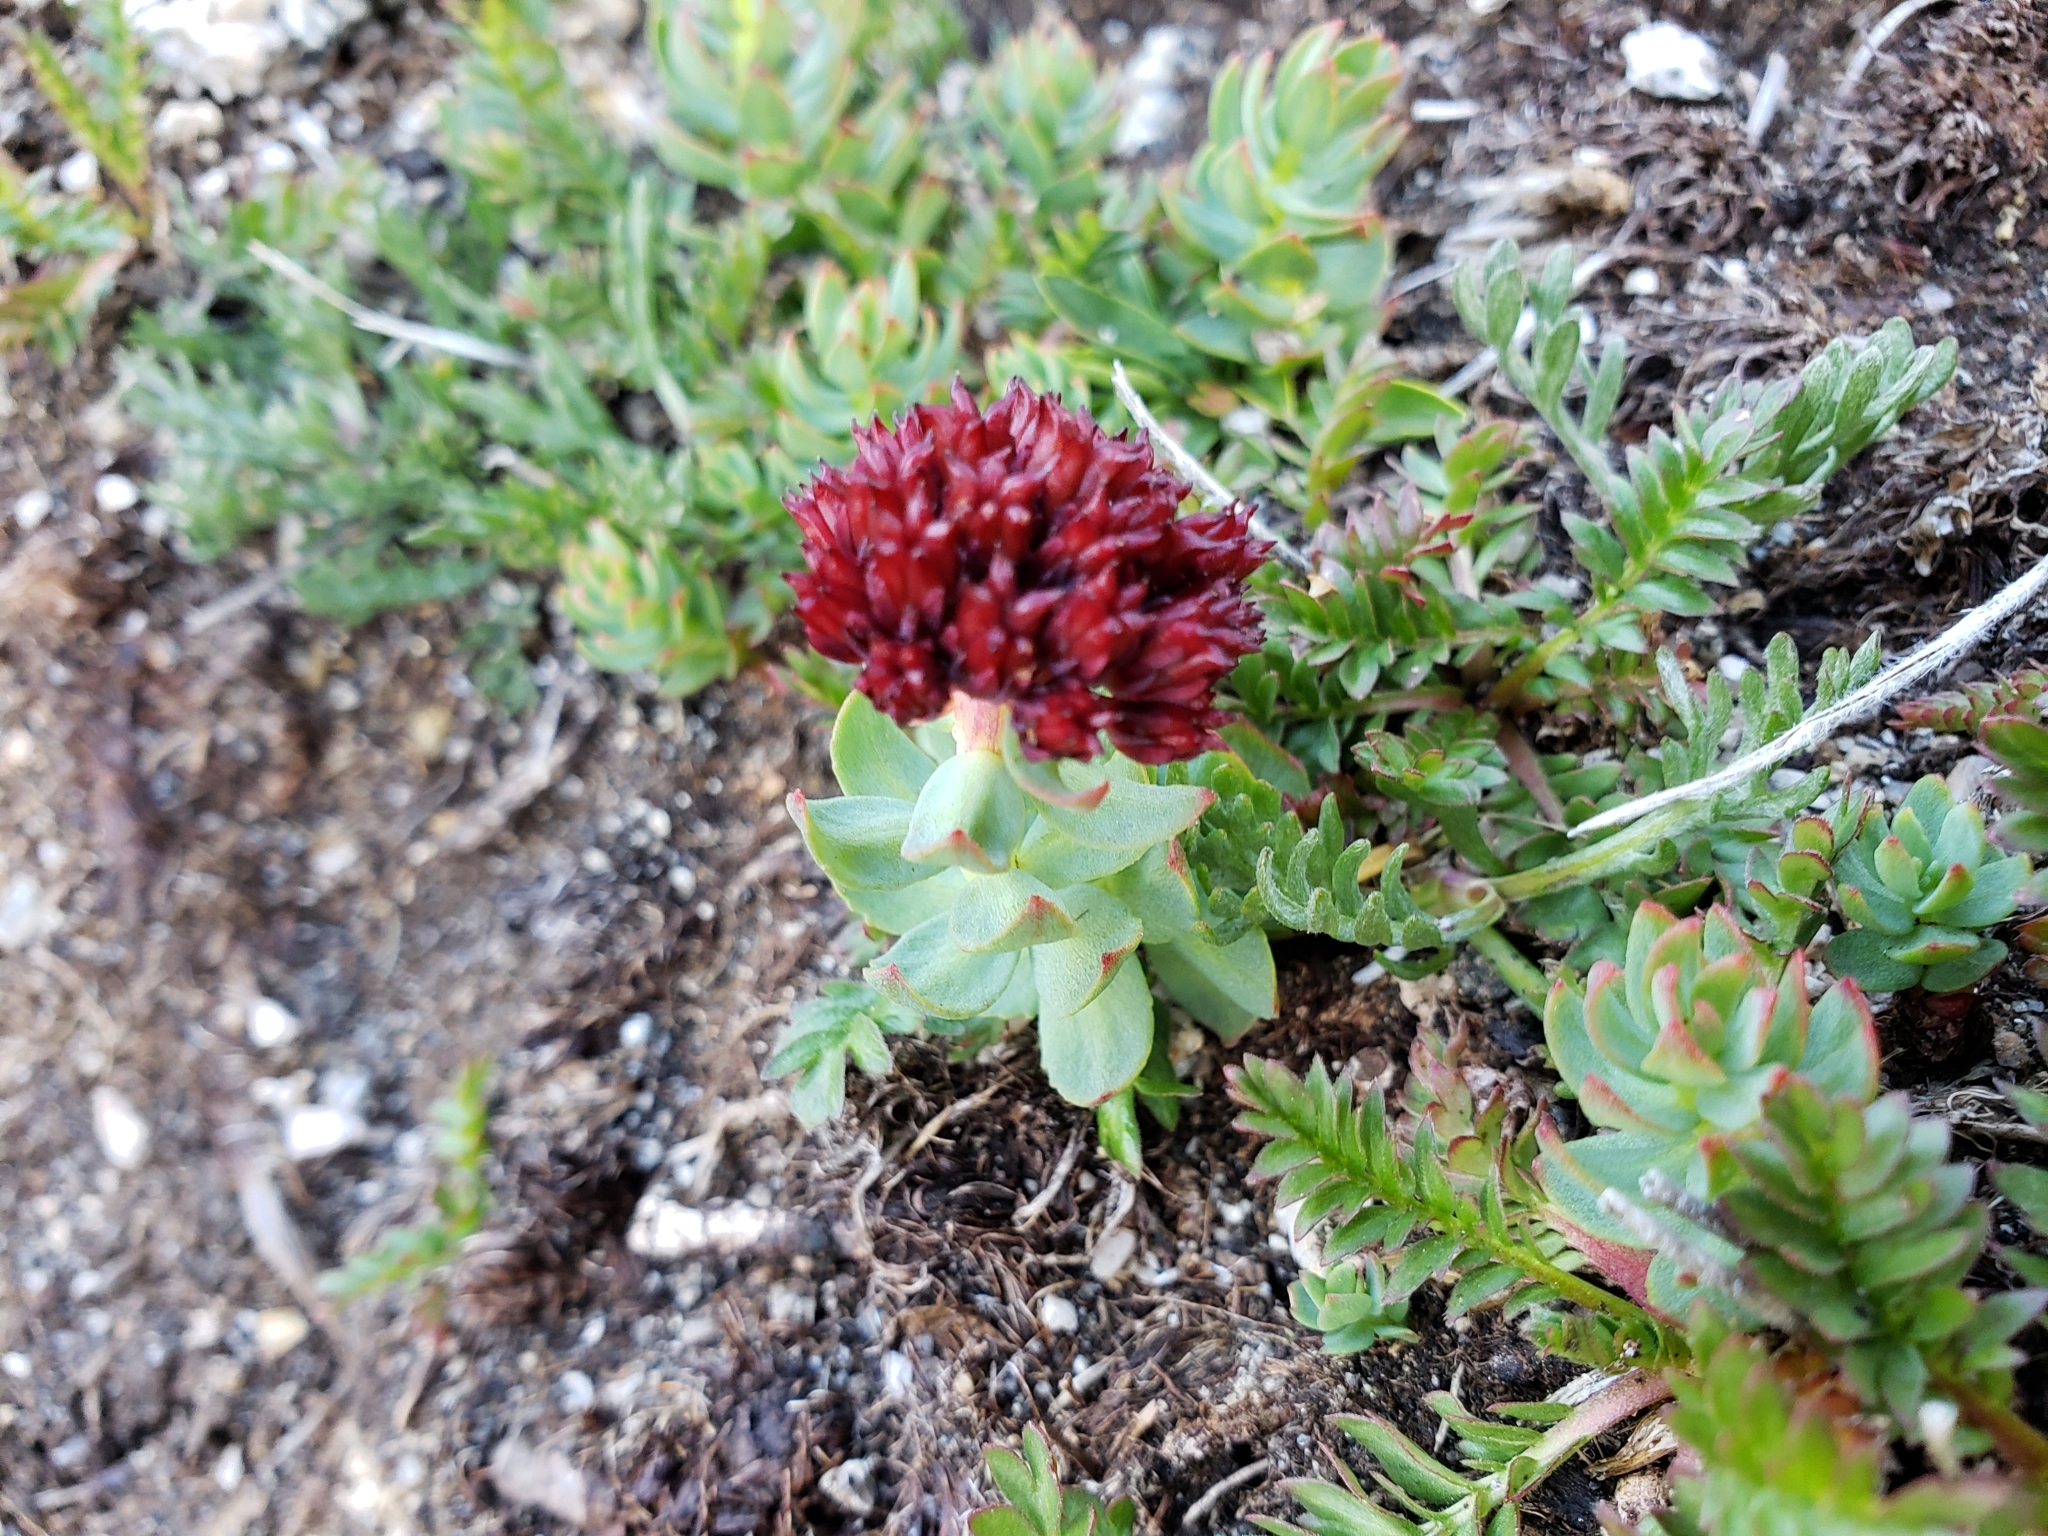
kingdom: Plantae
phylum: Tracheophyta
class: Magnoliopsida
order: Saxifragales
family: Crassulaceae
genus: Rhodiola
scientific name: Rhodiola integrifolia
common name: Western roseroot
